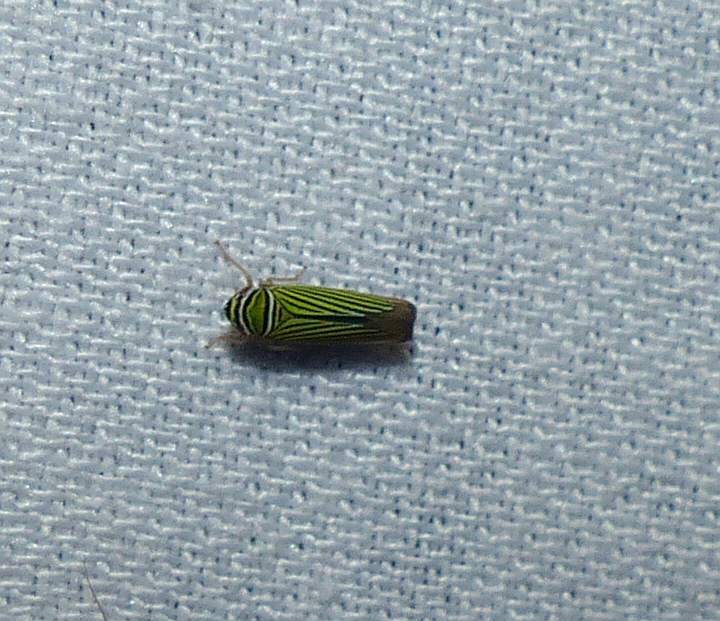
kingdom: Animalia
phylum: Arthropoda
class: Insecta
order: Hemiptera
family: Cicadellidae
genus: Tylozygus
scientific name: Tylozygus bifidus
